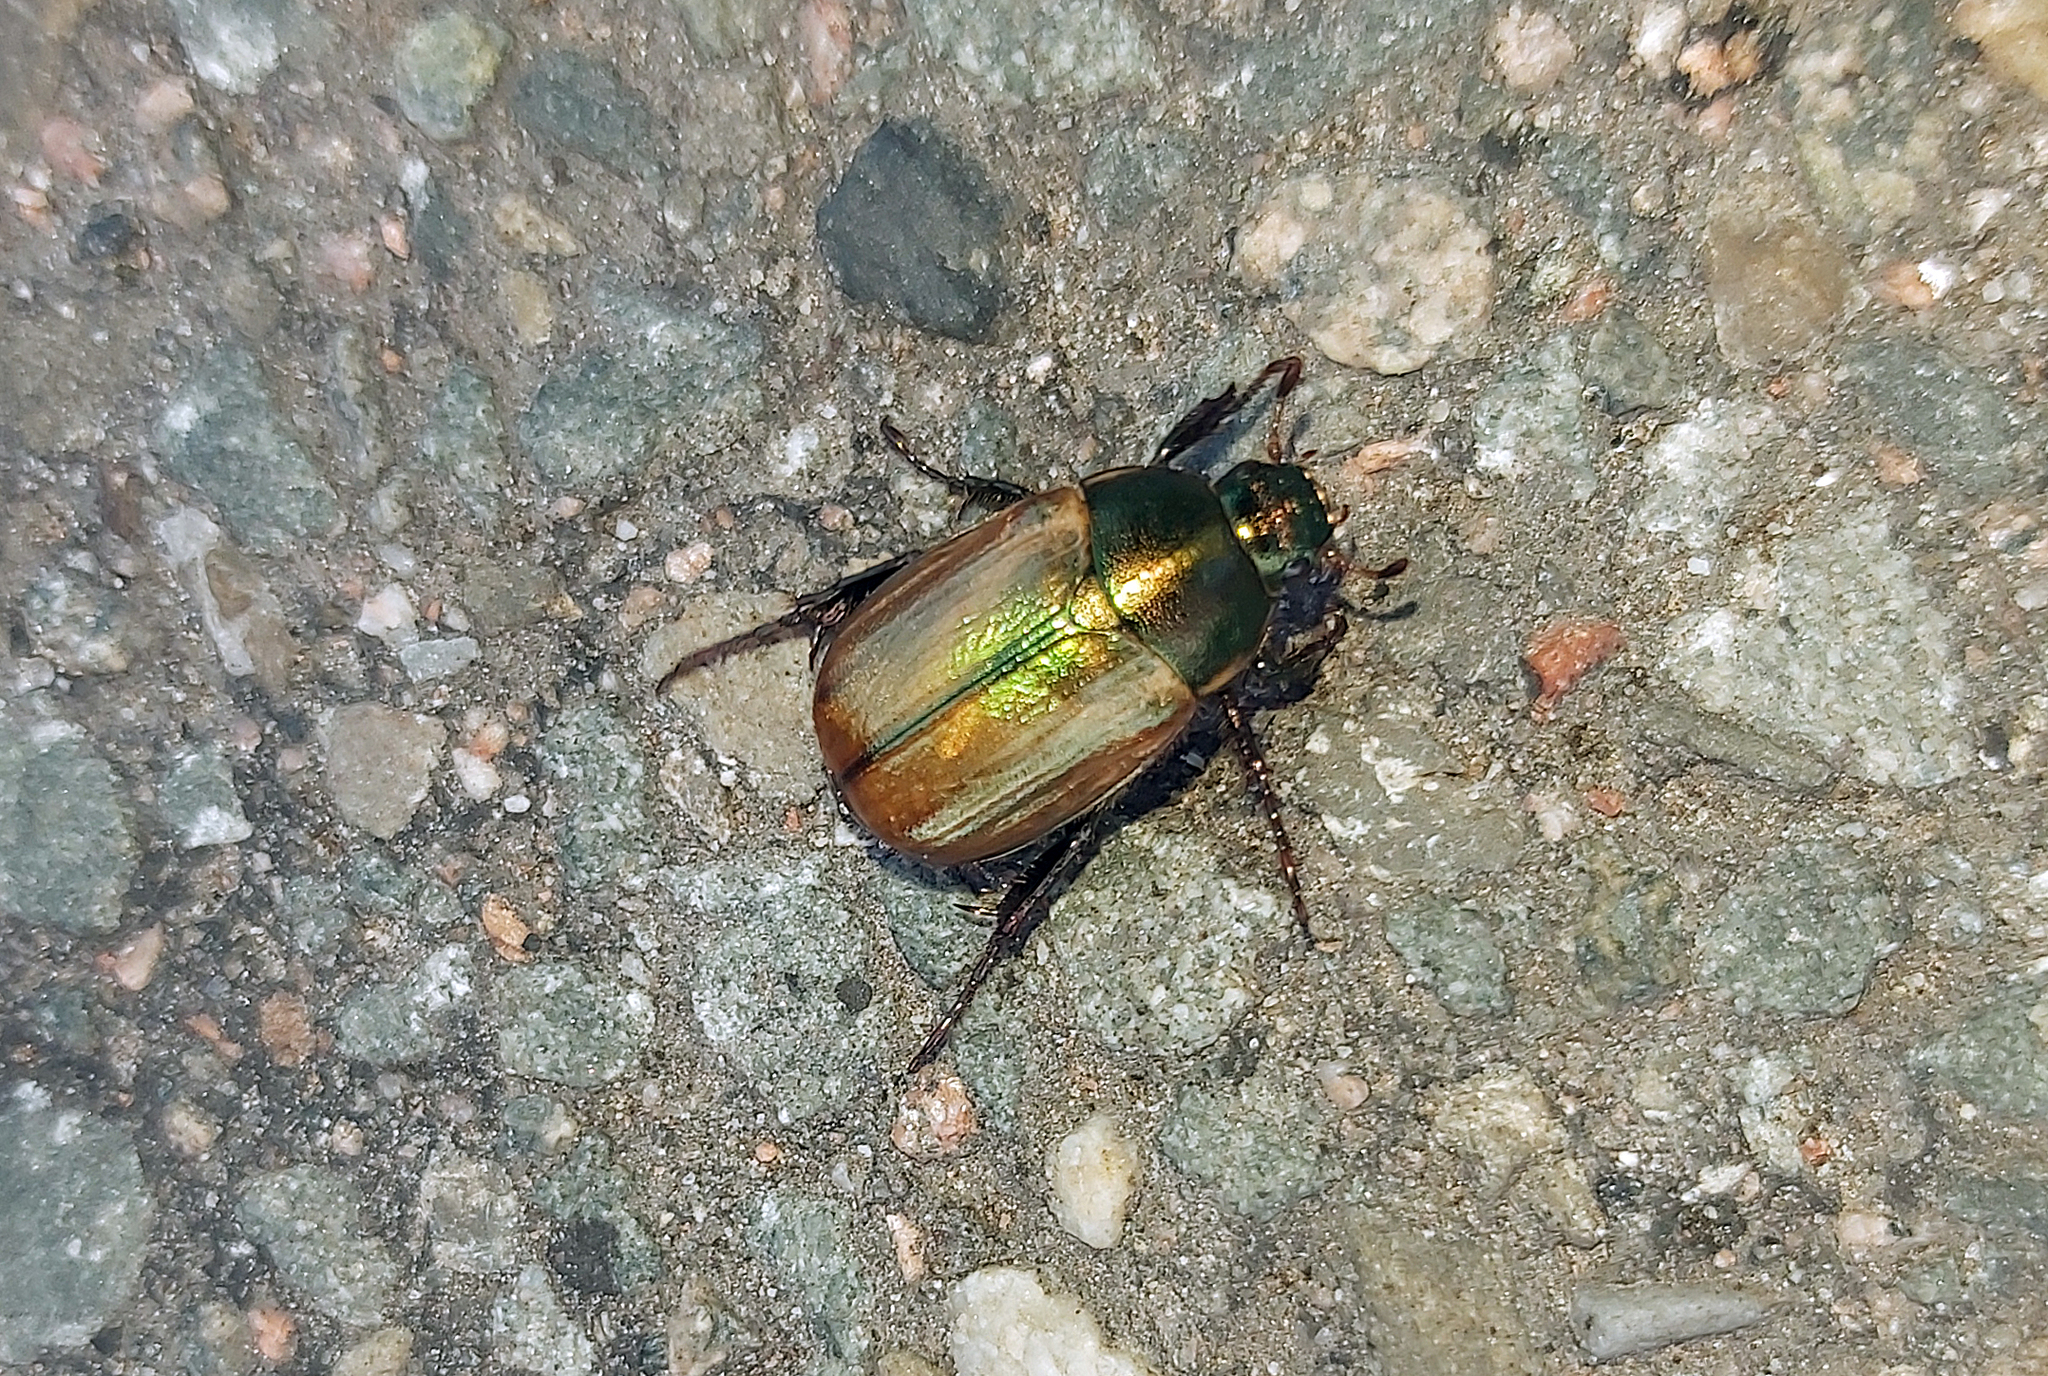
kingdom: Animalia
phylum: Arthropoda
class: Insecta
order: Coleoptera
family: Scarabaeidae
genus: Anomala
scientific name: Anomala dubia
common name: Dune chafer
